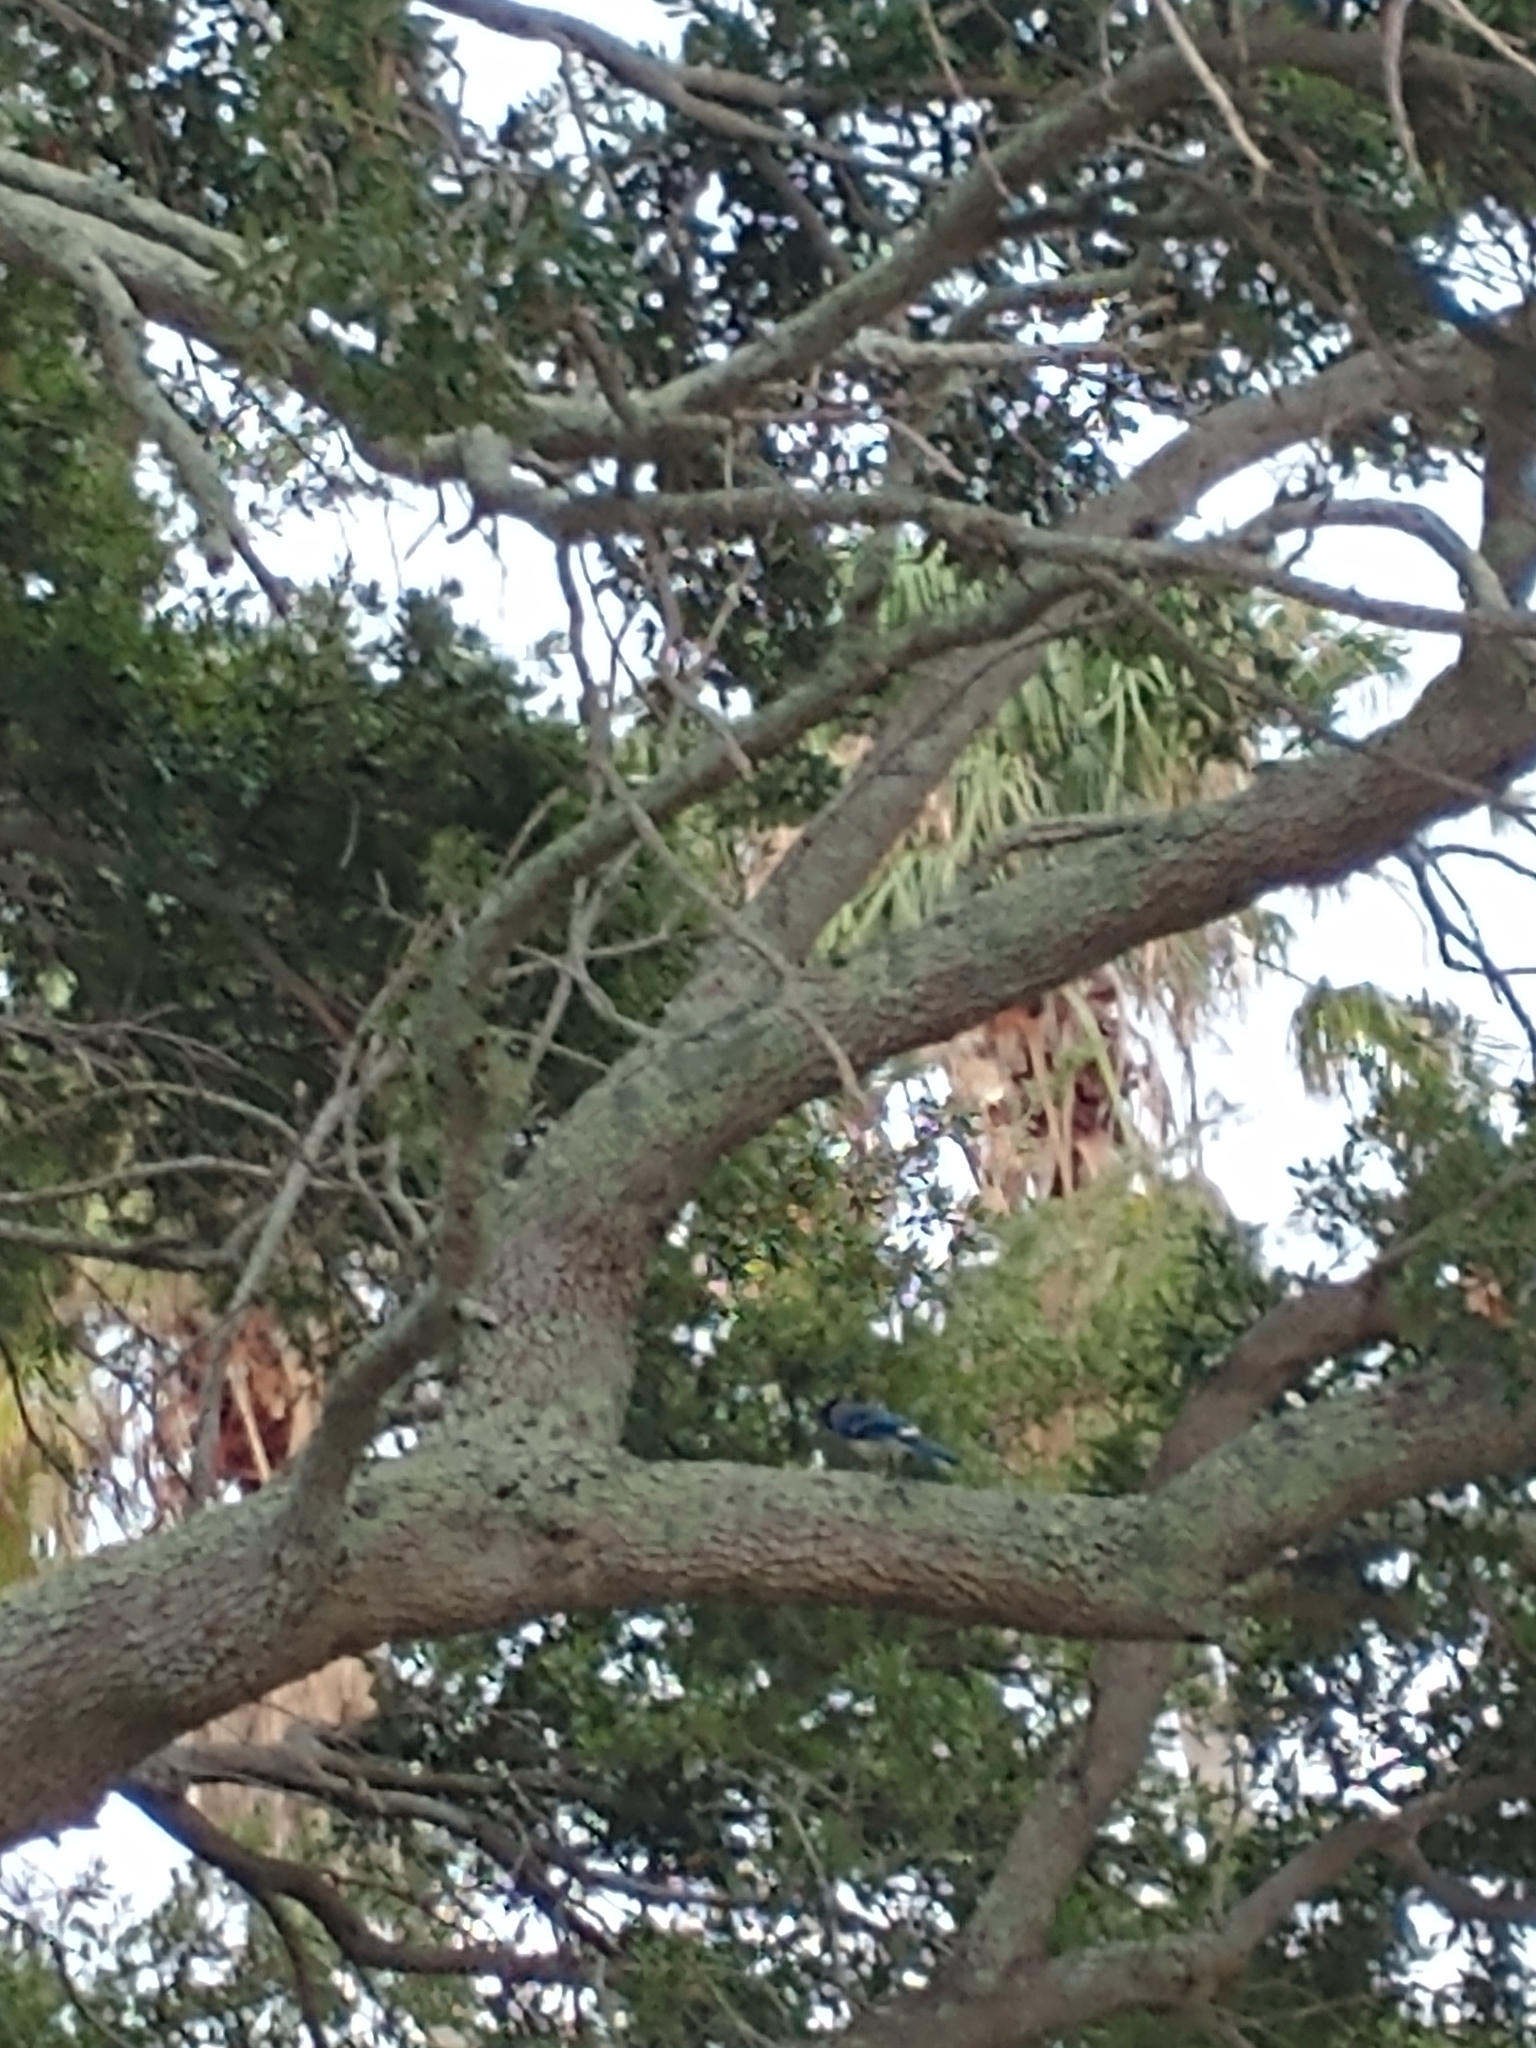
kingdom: Animalia
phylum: Chordata
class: Aves
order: Passeriformes
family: Corvidae
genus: Cyanocitta
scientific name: Cyanocitta cristata
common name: Blue jay
